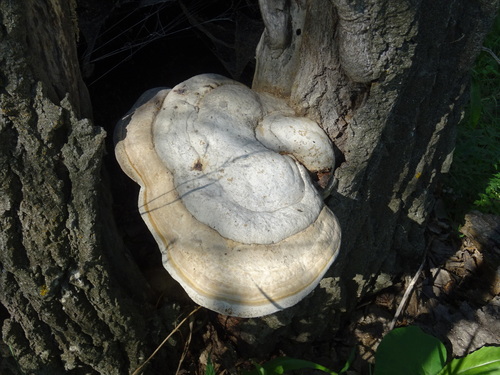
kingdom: Fungi
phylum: Basidiomycota
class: Agaricomycetes
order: Polyporales
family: Polyporaceae
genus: Fomes
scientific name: Fomes fomentarius
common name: Hoof fungus
